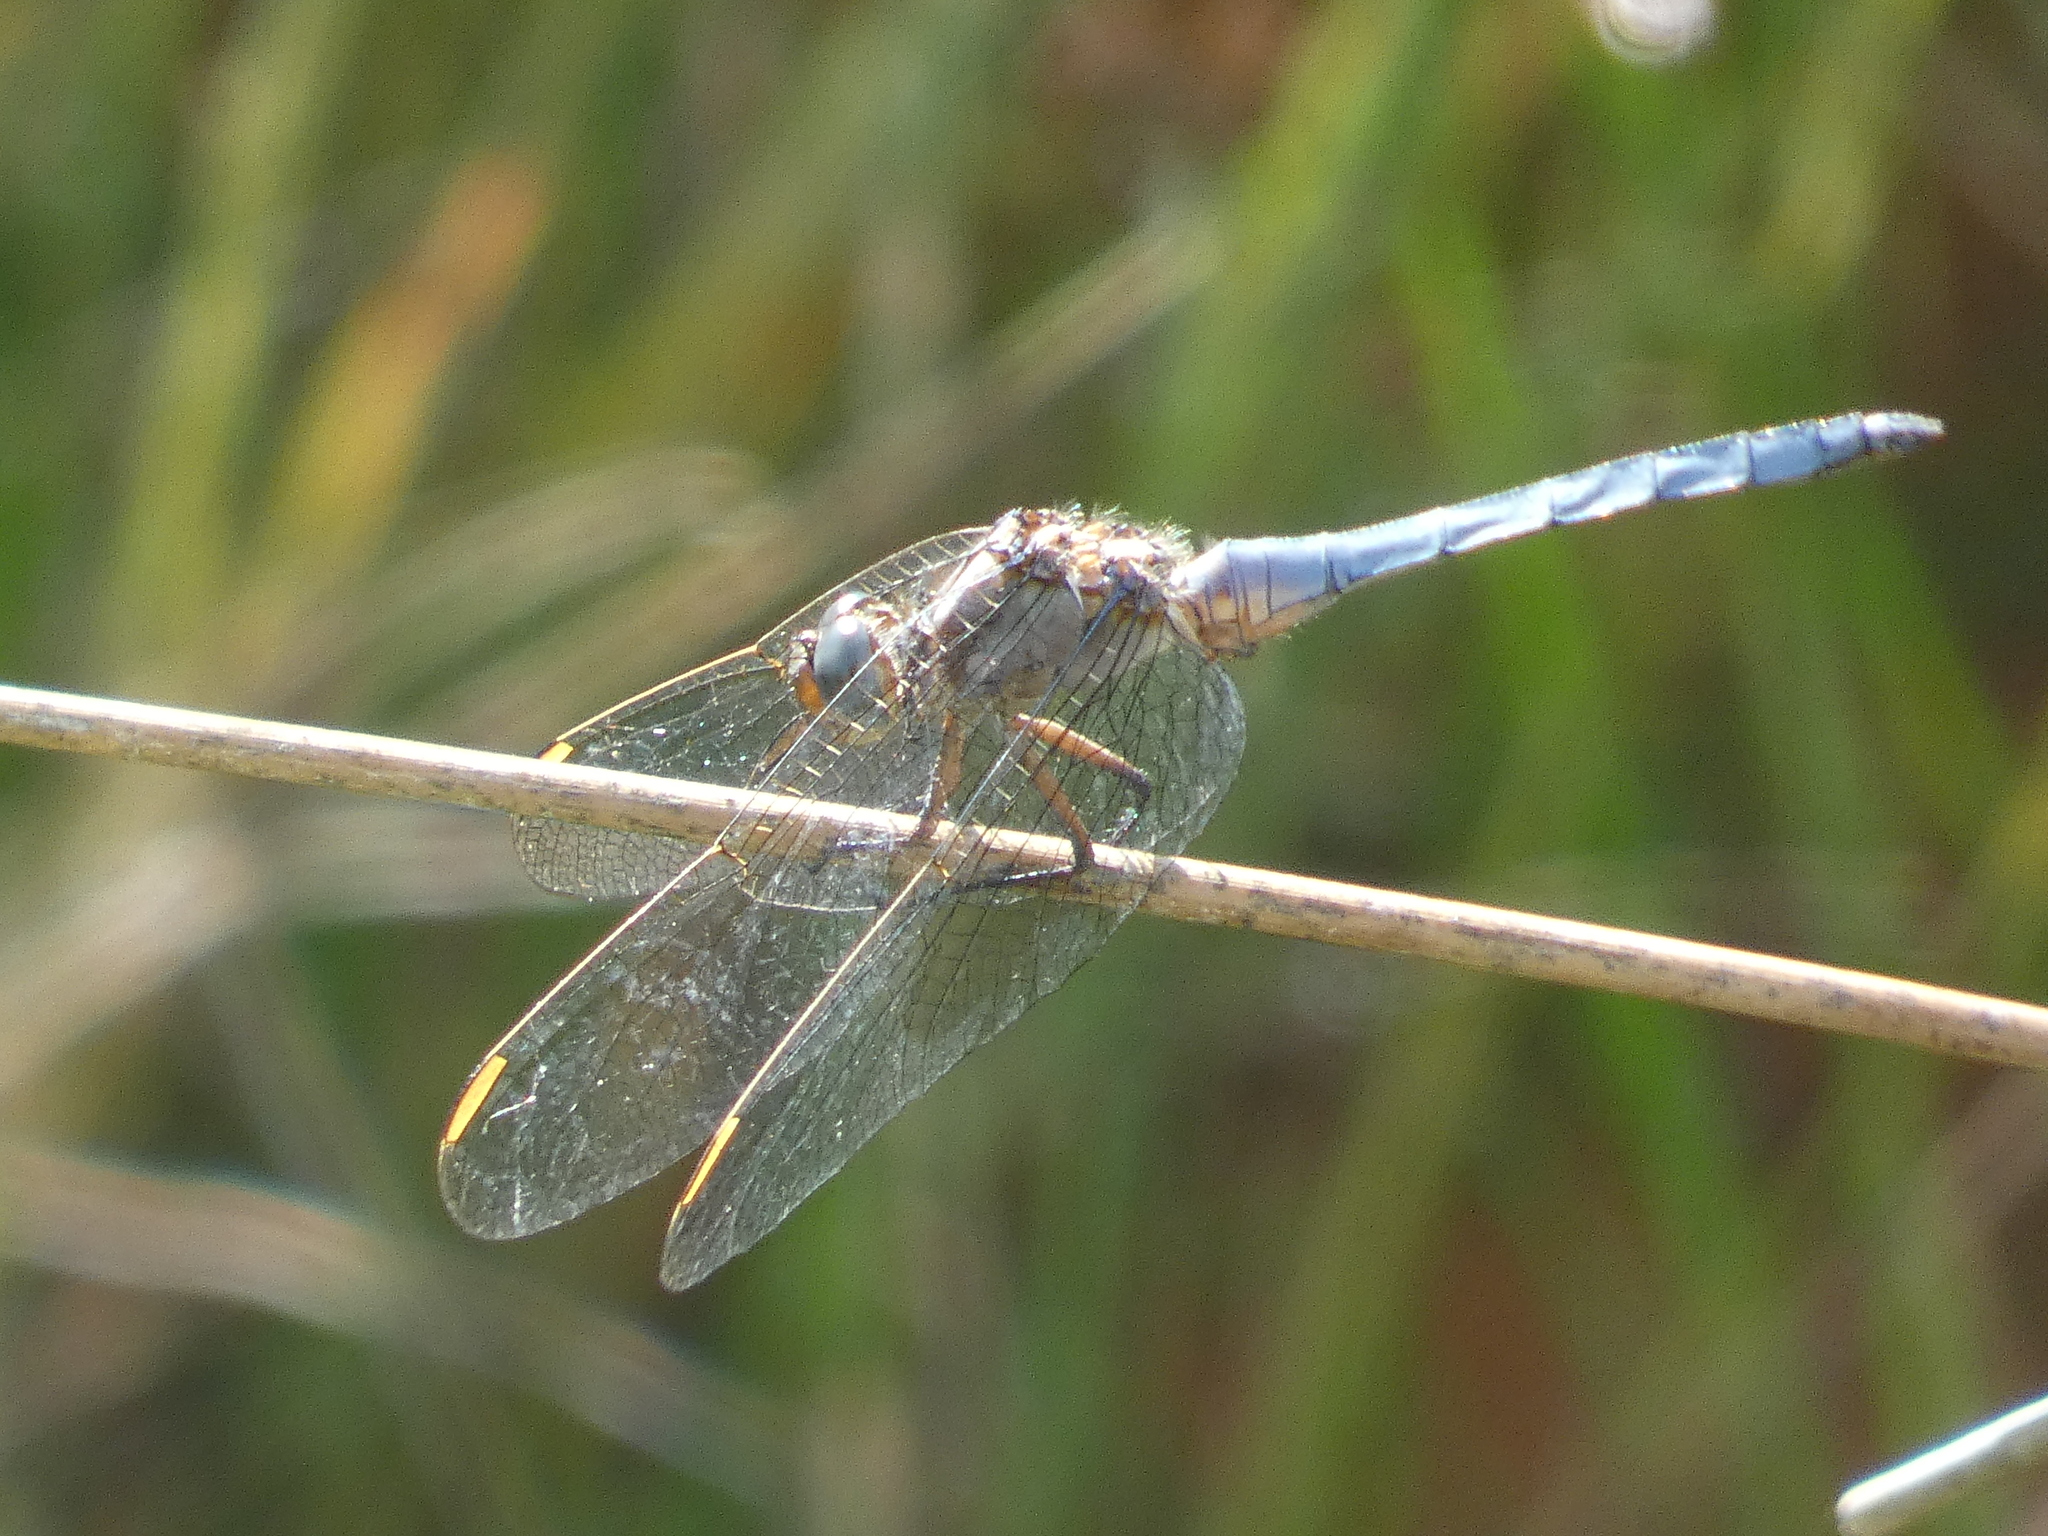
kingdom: Animalia
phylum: Arthropoda
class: Insecta
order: Odonata
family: Libellulidae
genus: Orthetrum
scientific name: Orthetrum coerulescens
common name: Keeled skimmer
